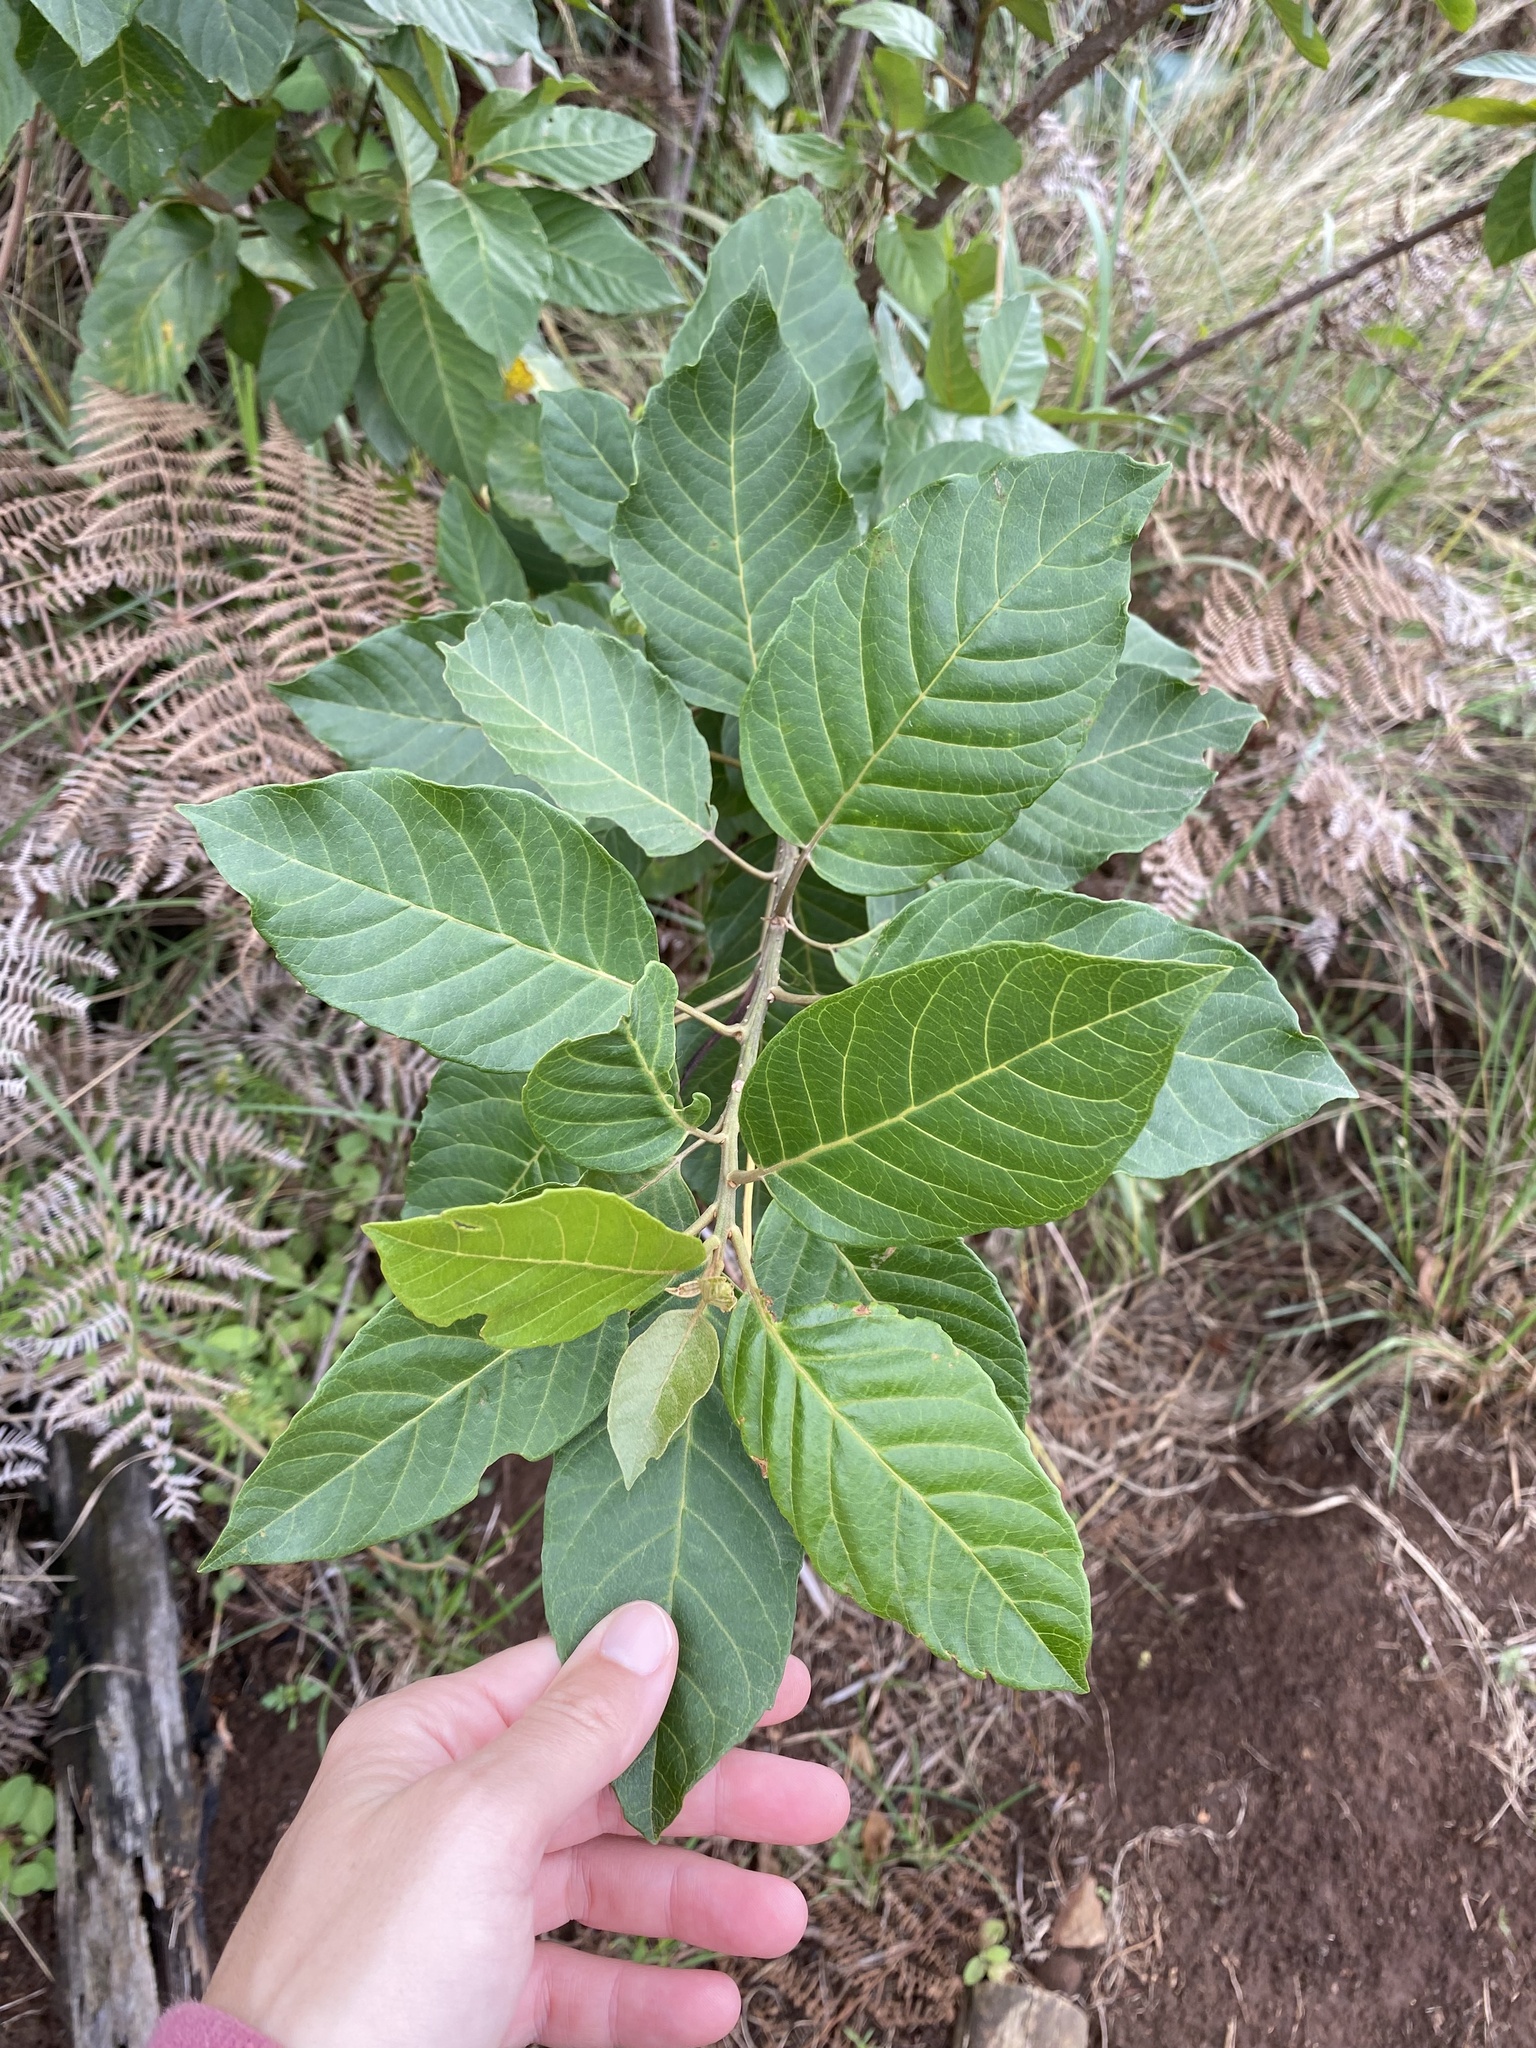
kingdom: Plantae
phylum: Tracheophyta
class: Magnoliopsida
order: Ericales
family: Primulaceae
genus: Maesa
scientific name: Maesa lanceolata
